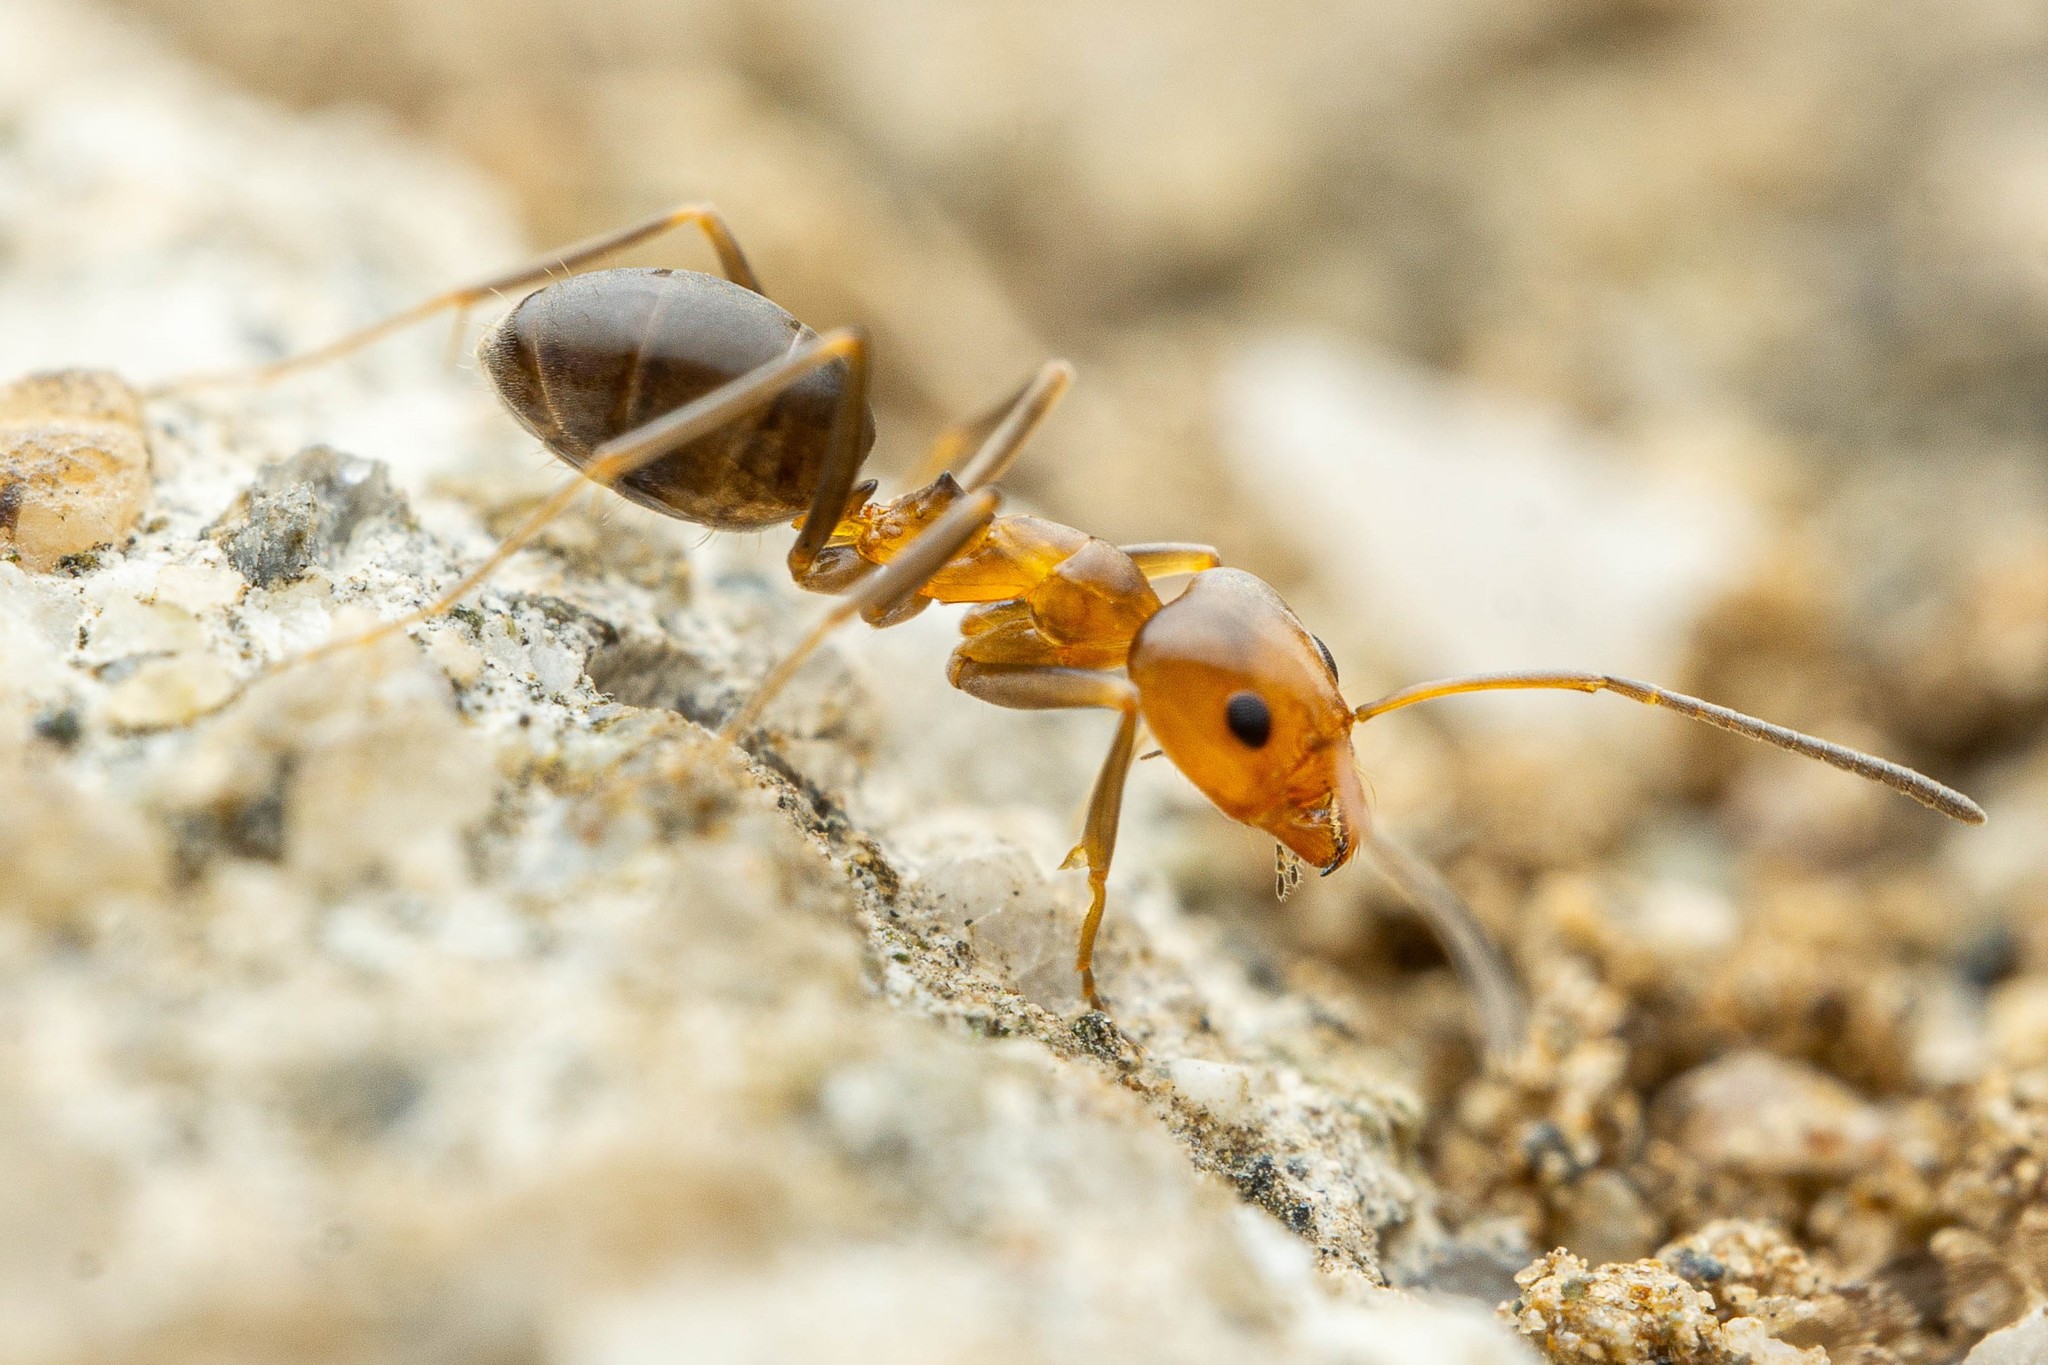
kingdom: Animalia
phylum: Arthropoda
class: Insecta
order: Hymenoptera
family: Formicidae
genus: Dorymyrmex
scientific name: Dorymyrmex bicolor
